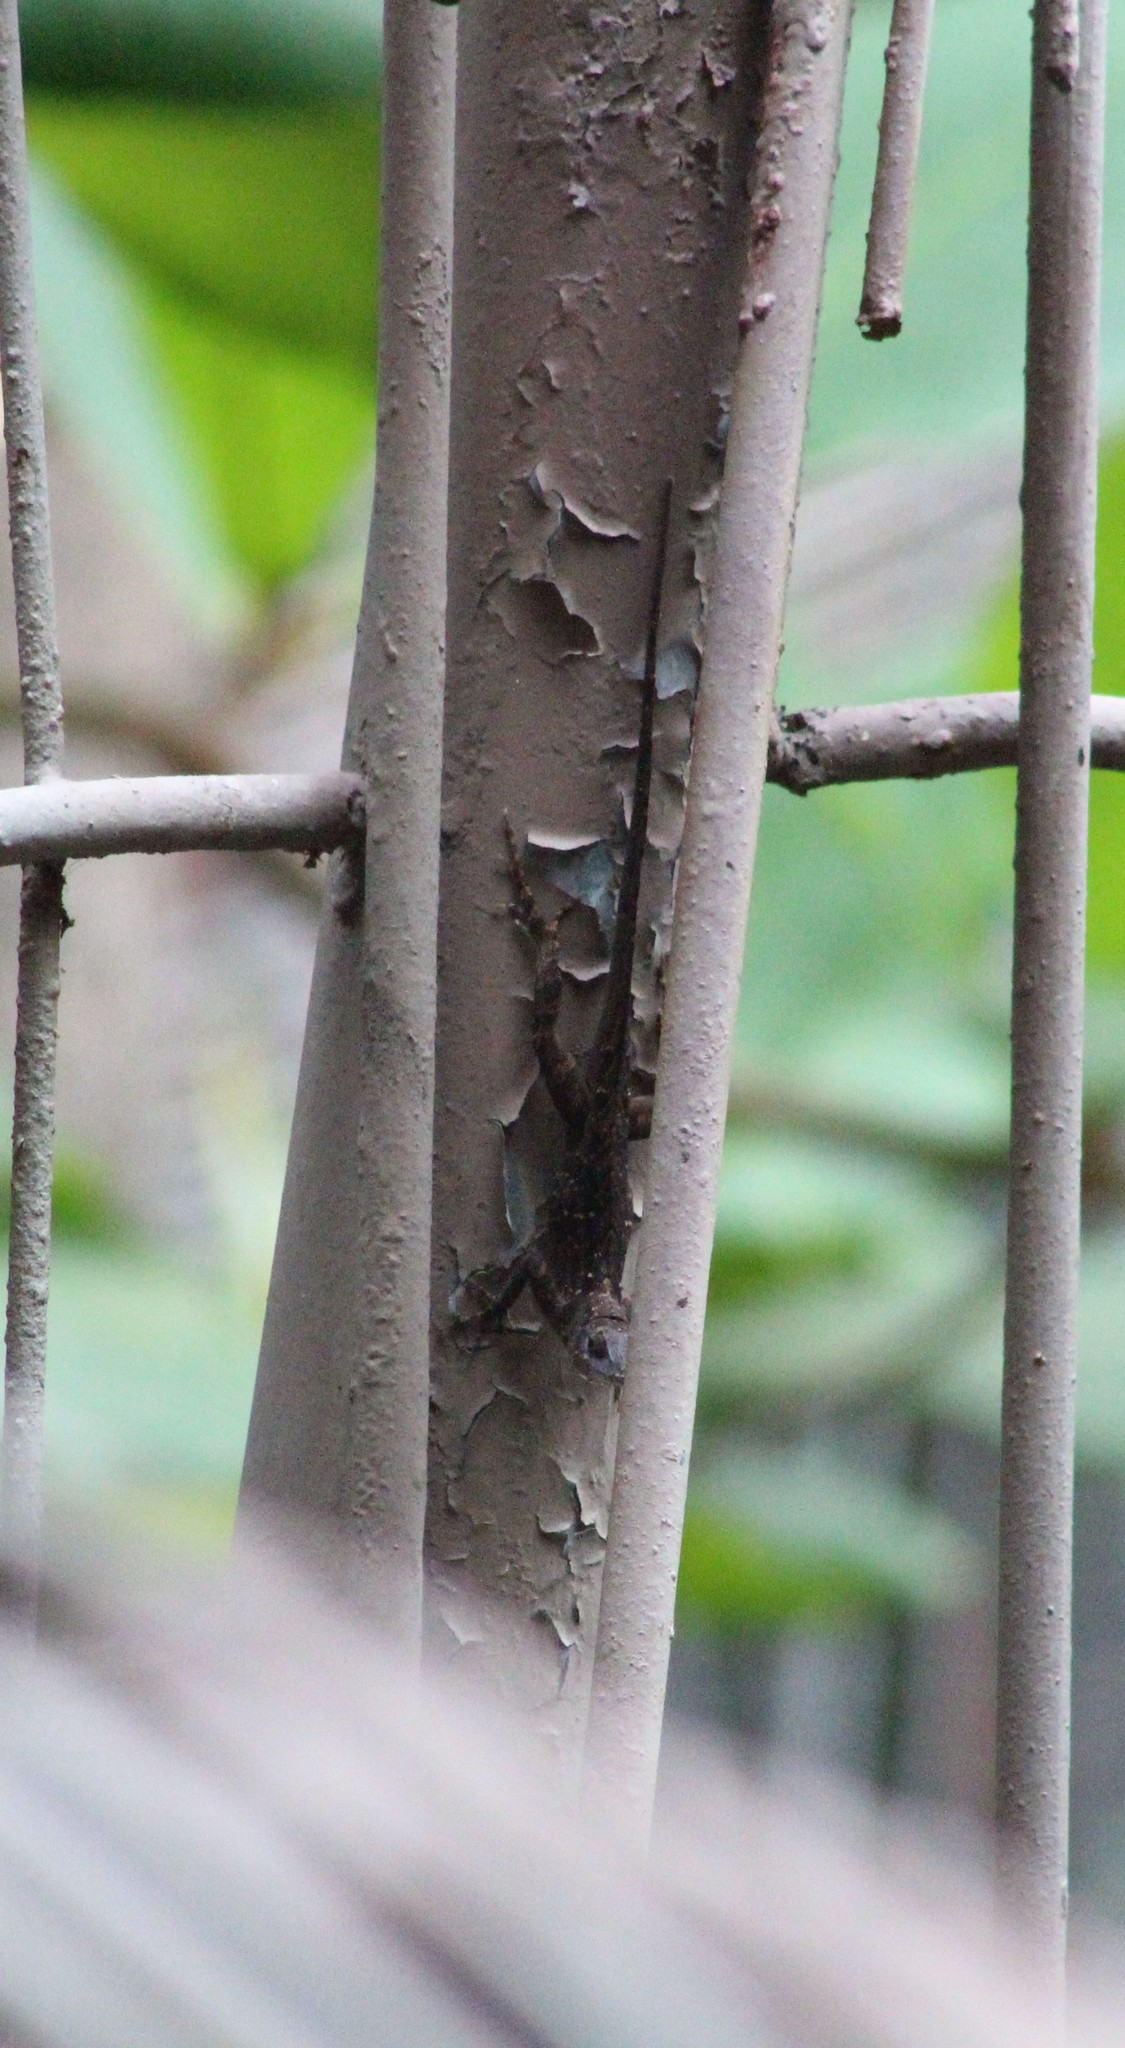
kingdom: Animalia
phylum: Chordata
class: Squamata
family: Dactyloidae
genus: Anolis
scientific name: Anolis sagrei
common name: Brown anole
